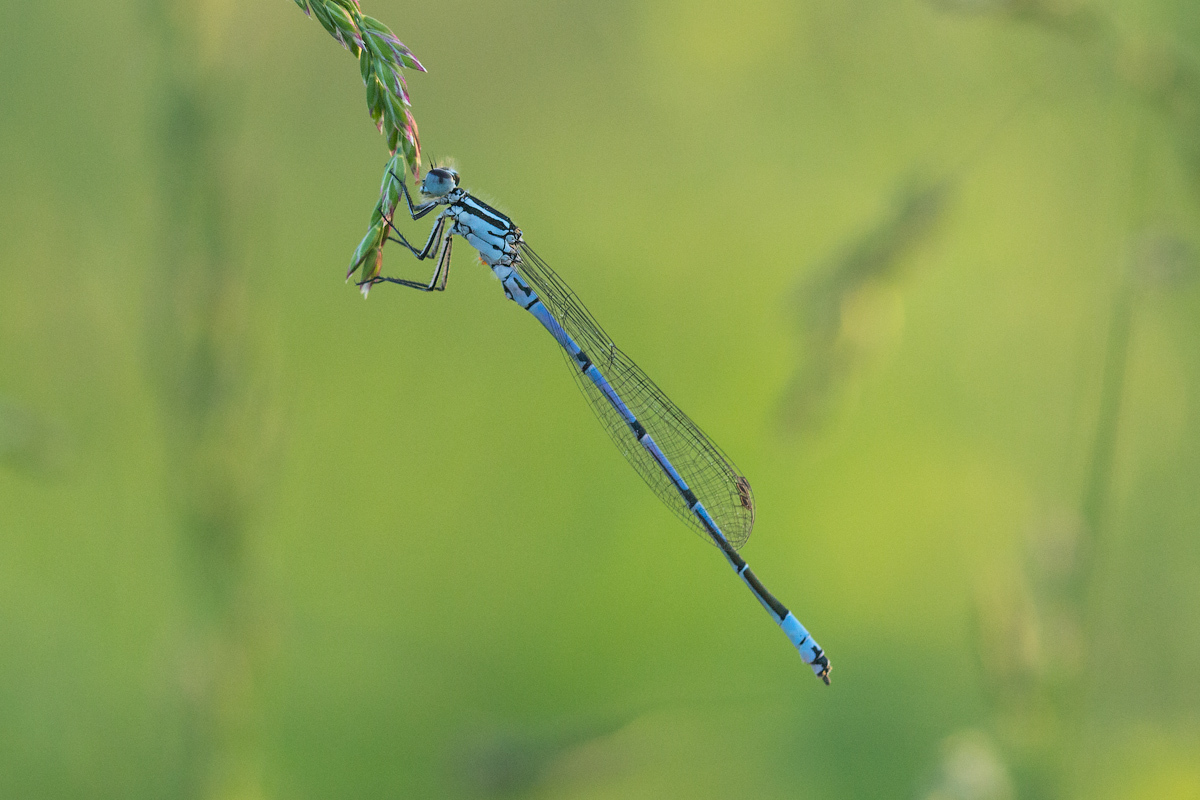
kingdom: Animalia
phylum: Arthropoda
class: Insecta
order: Odonata
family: Coenagrionidae
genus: Coenagrion
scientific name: Coenagrion puella
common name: Azure damselfly
